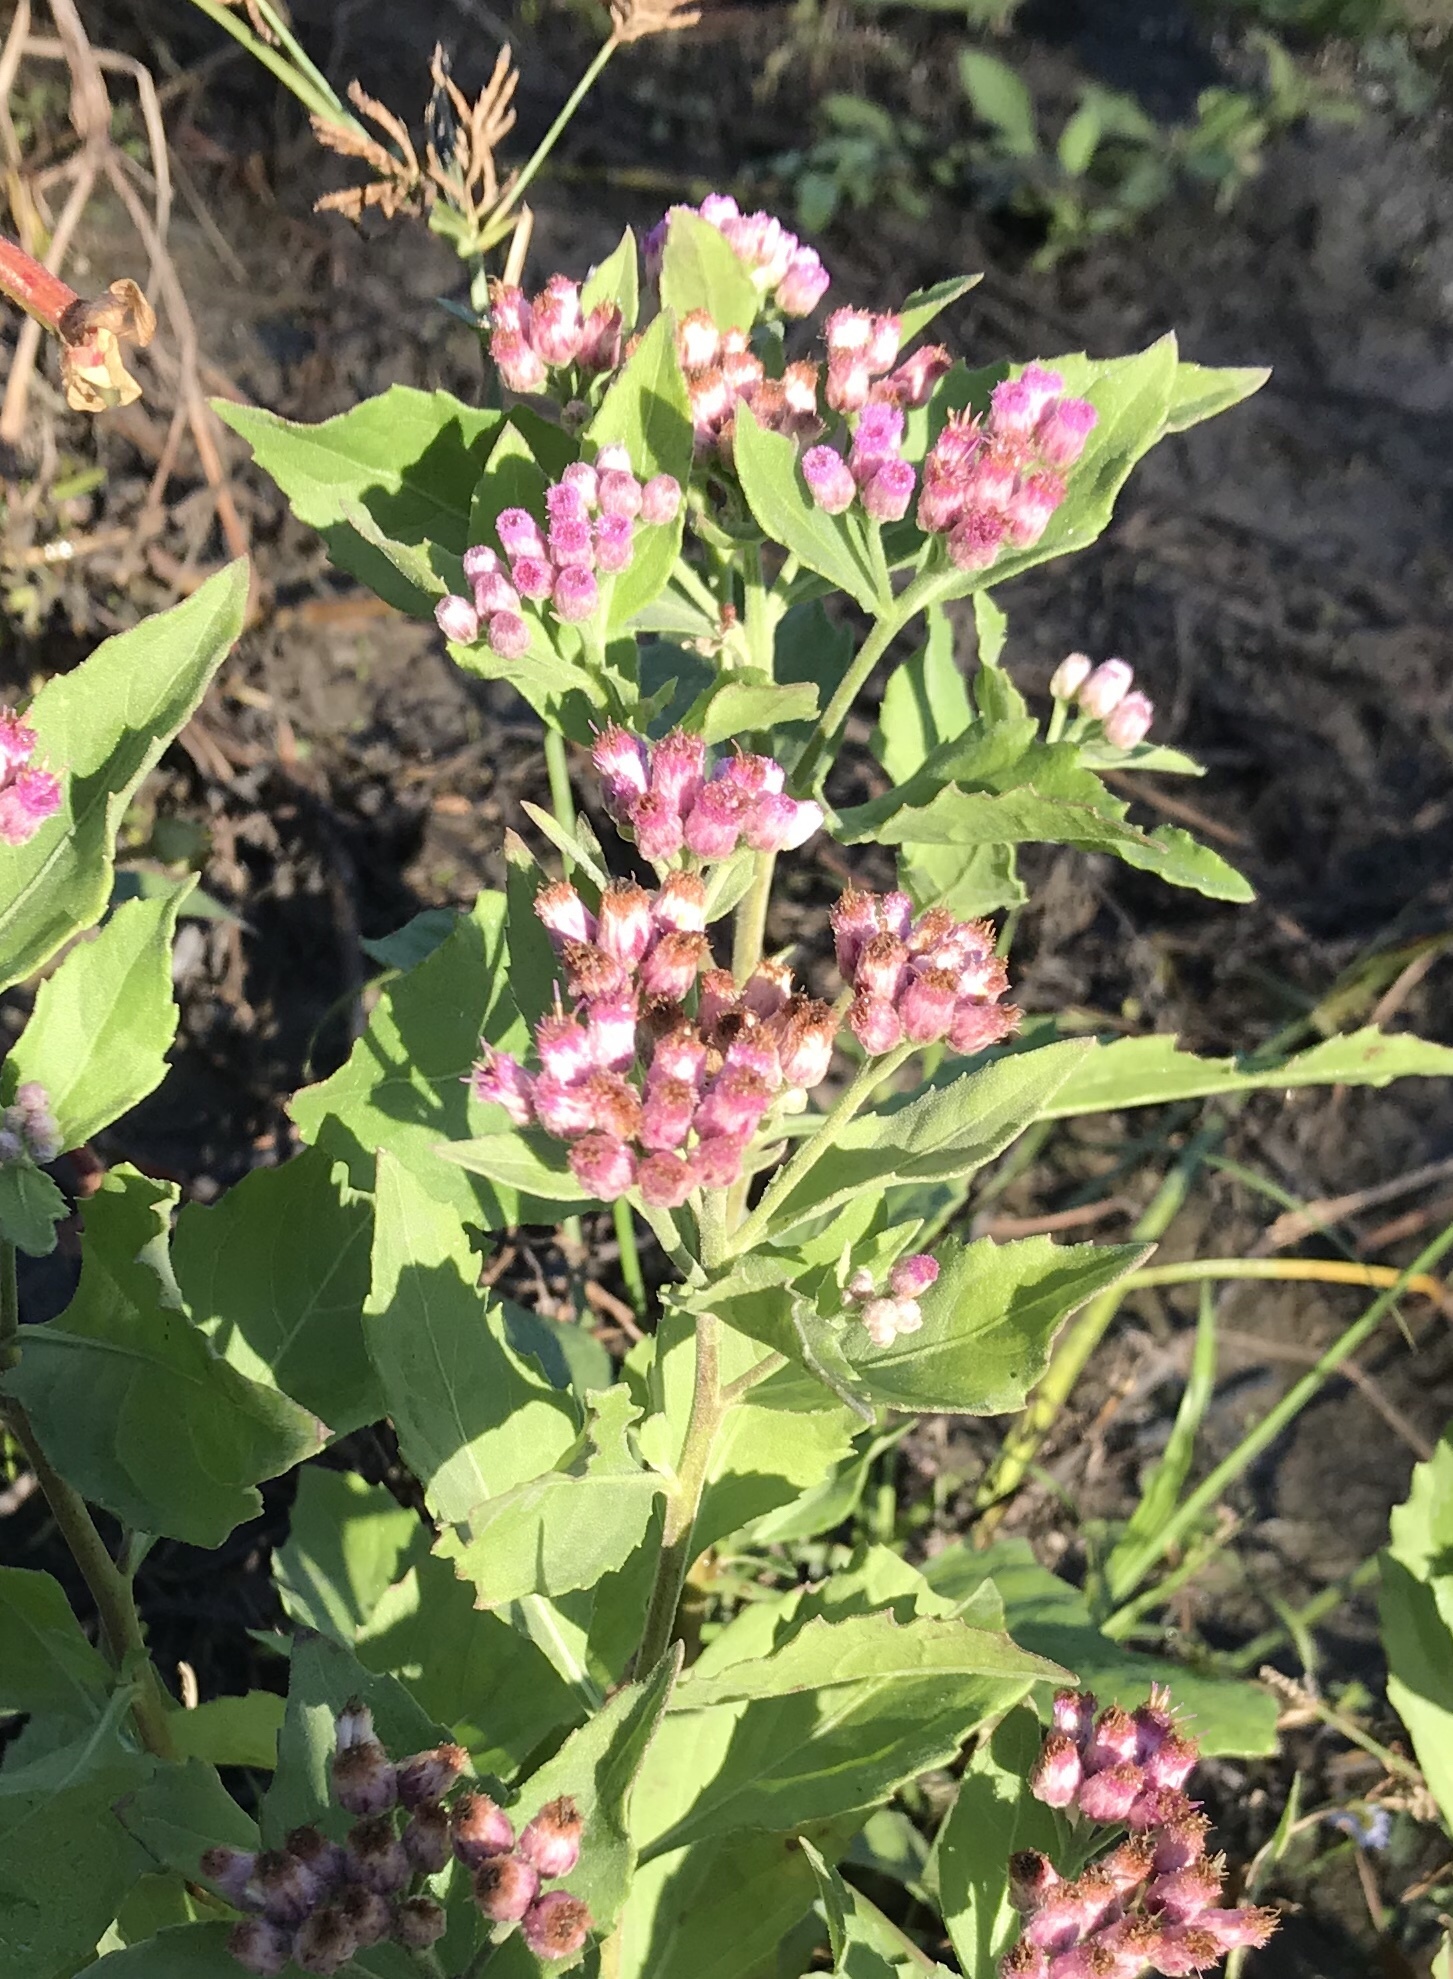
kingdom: Plantae
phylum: Tracheophyta
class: Magnoliopsida
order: Asterales
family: Asteraceae
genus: Pluchea
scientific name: Pluchea odorata
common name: Saltmarsh fleabane
